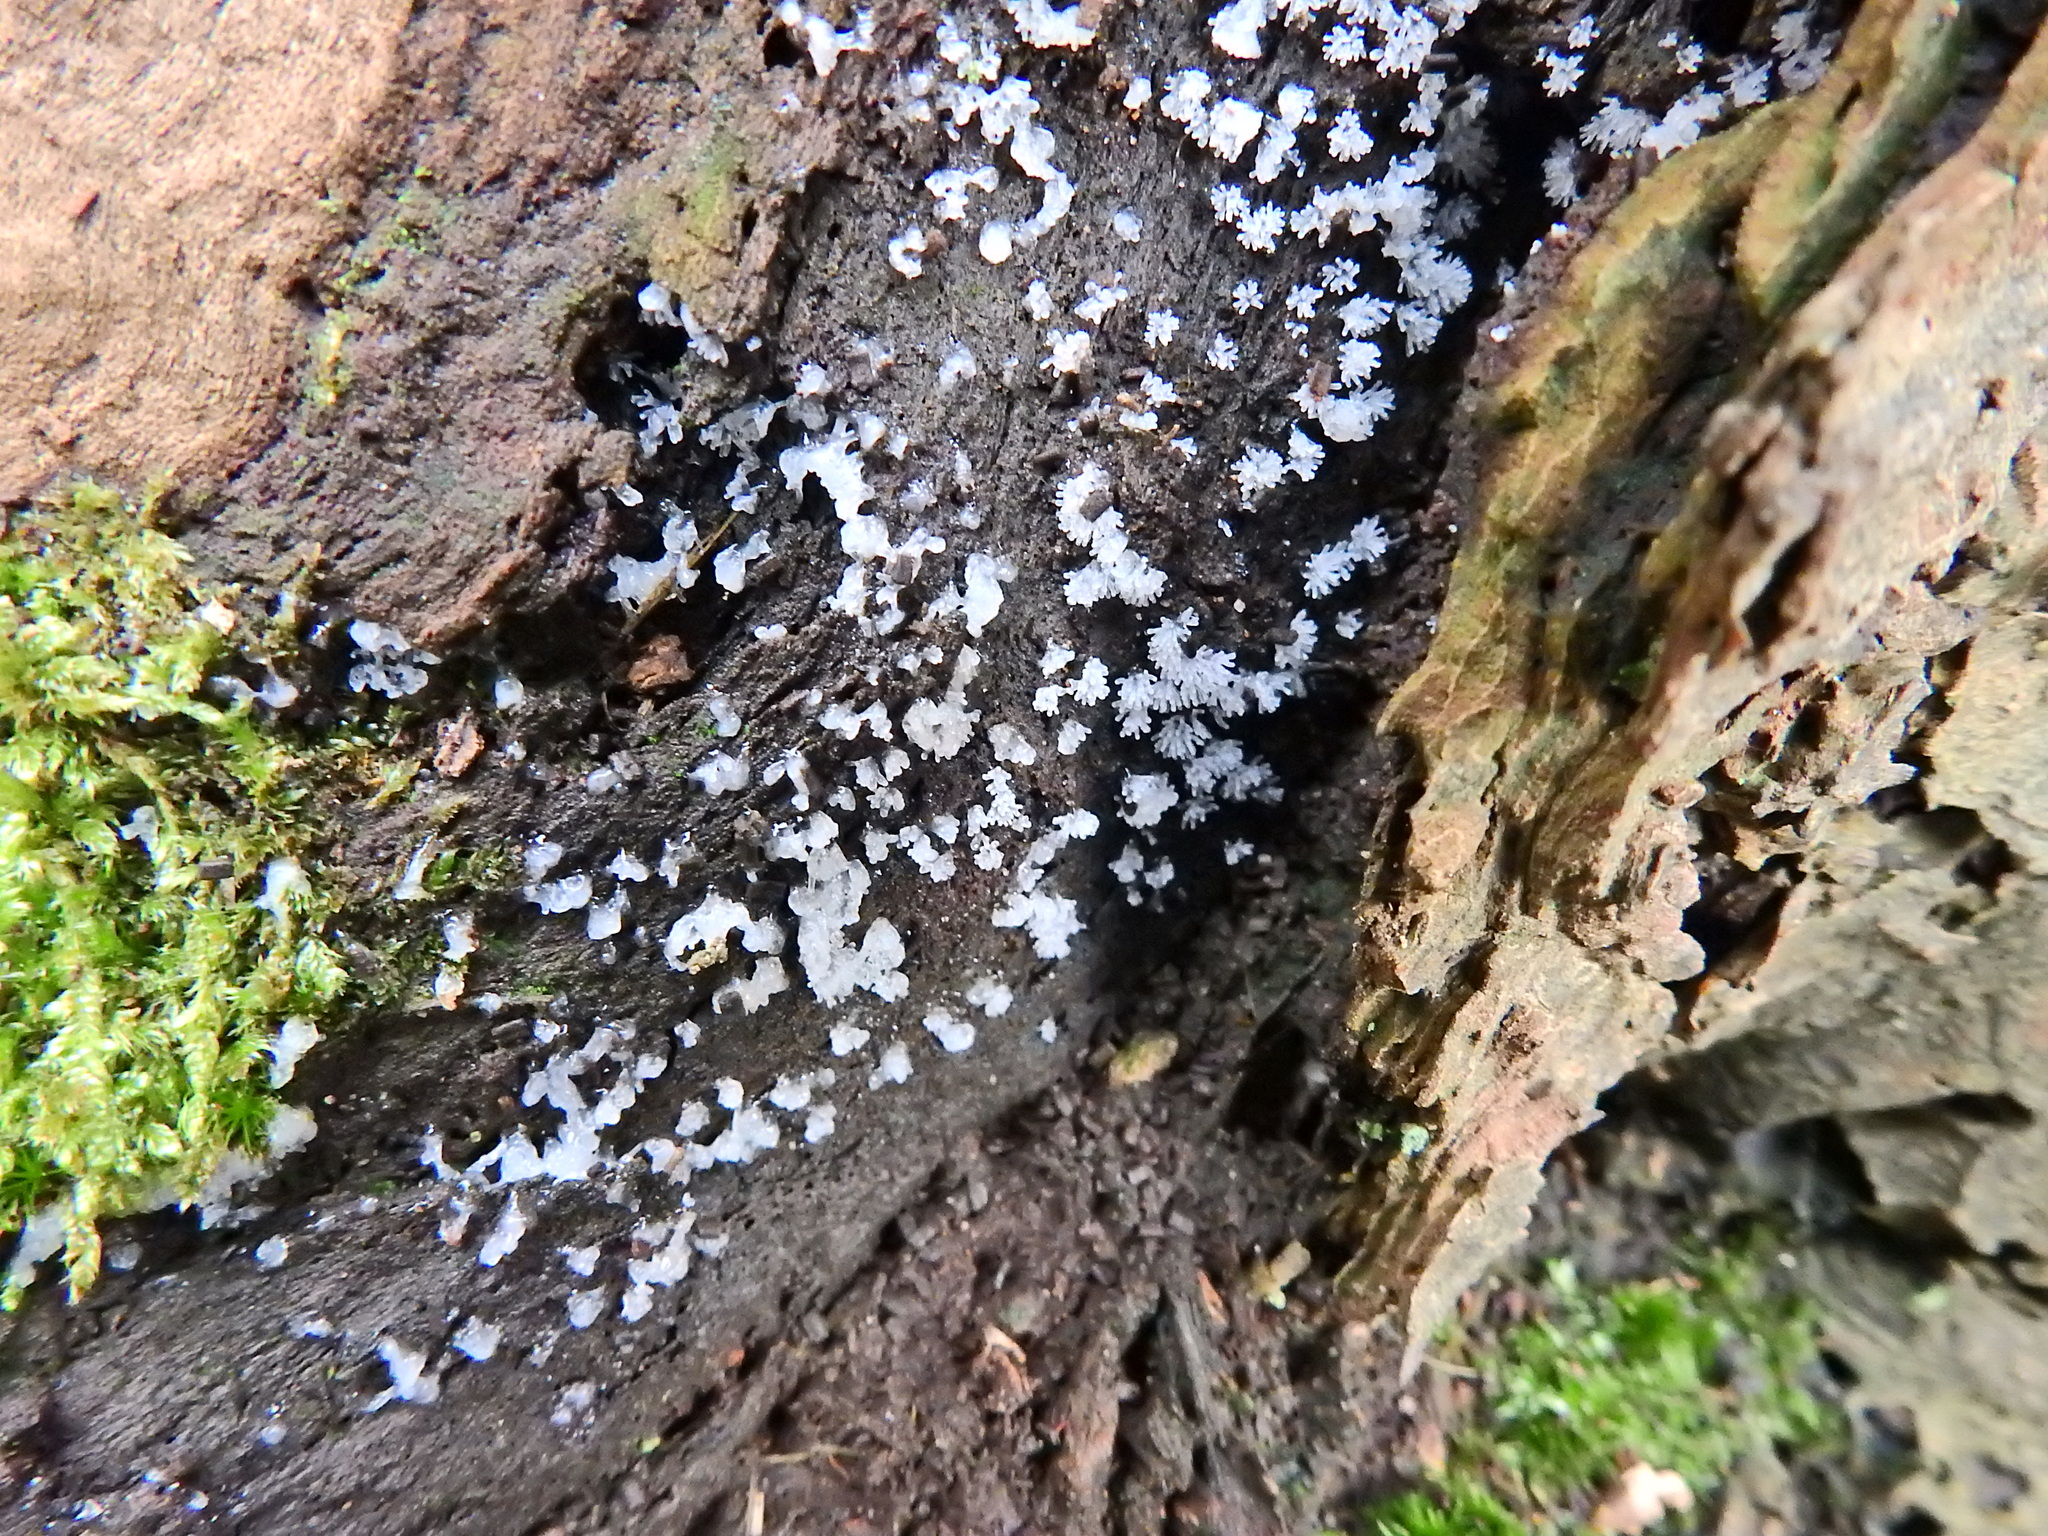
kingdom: Protozoa
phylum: Mycetozoa
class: Protosteliomycetes
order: Ceratiomyxales
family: Ceratiomyxaceae
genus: Ceratiomyxa
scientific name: Ceratiomyxa fruticulosa
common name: Honeycomb coral slime mold
